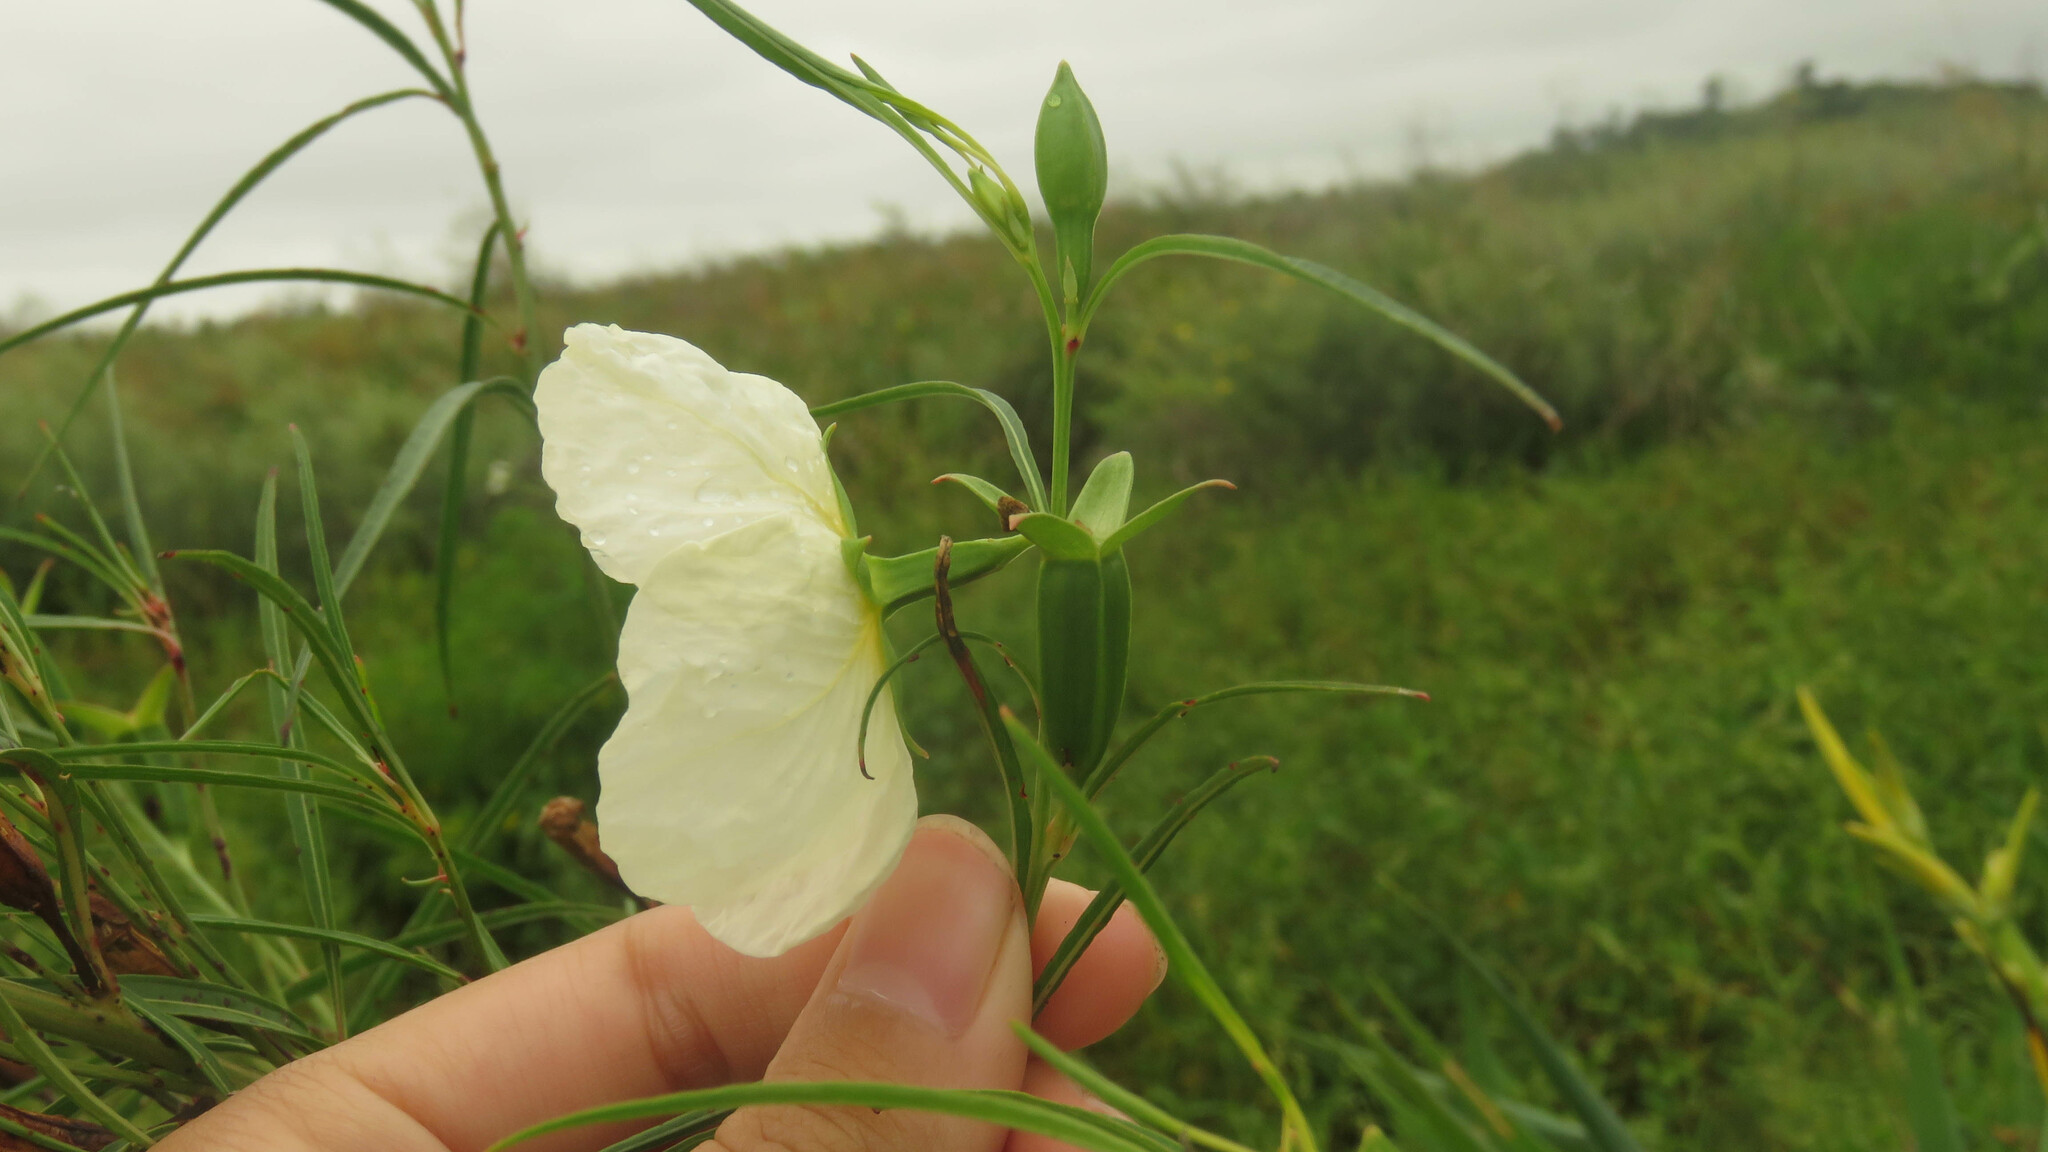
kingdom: Plantae
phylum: Tracheophyta
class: Magnoliopsida
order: Myrtales
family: Onagraceae
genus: Ludwigia
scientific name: Ludwigia major
